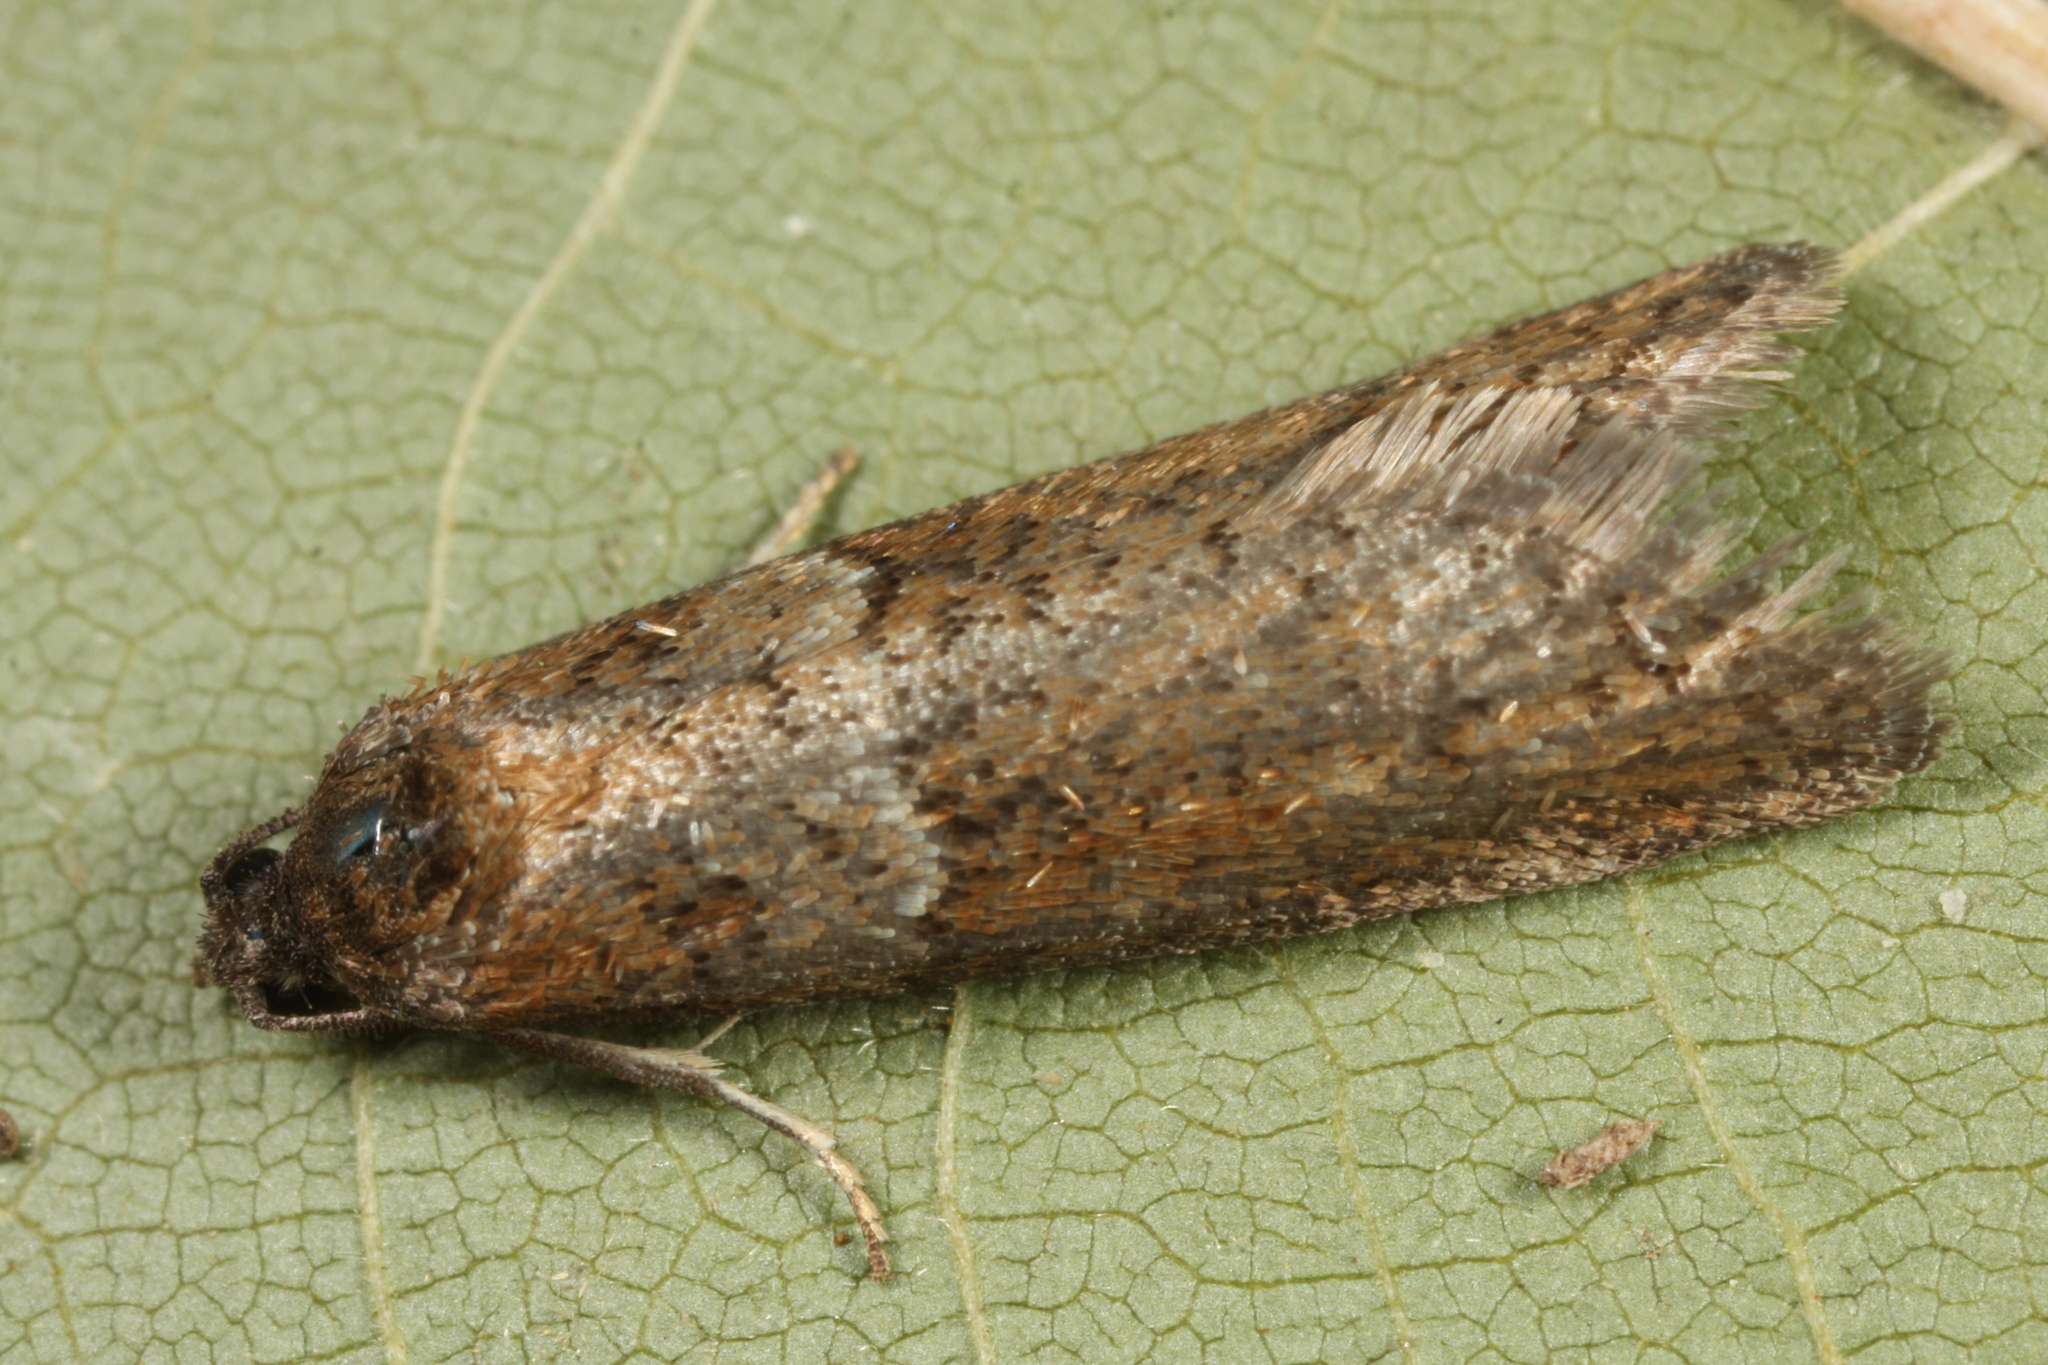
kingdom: Animalia
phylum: Arthropoda
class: Insecta
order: Lepidoptera
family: Tortricidae
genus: Tortricodes
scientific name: Tortricodes alternella
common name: Winter shade
